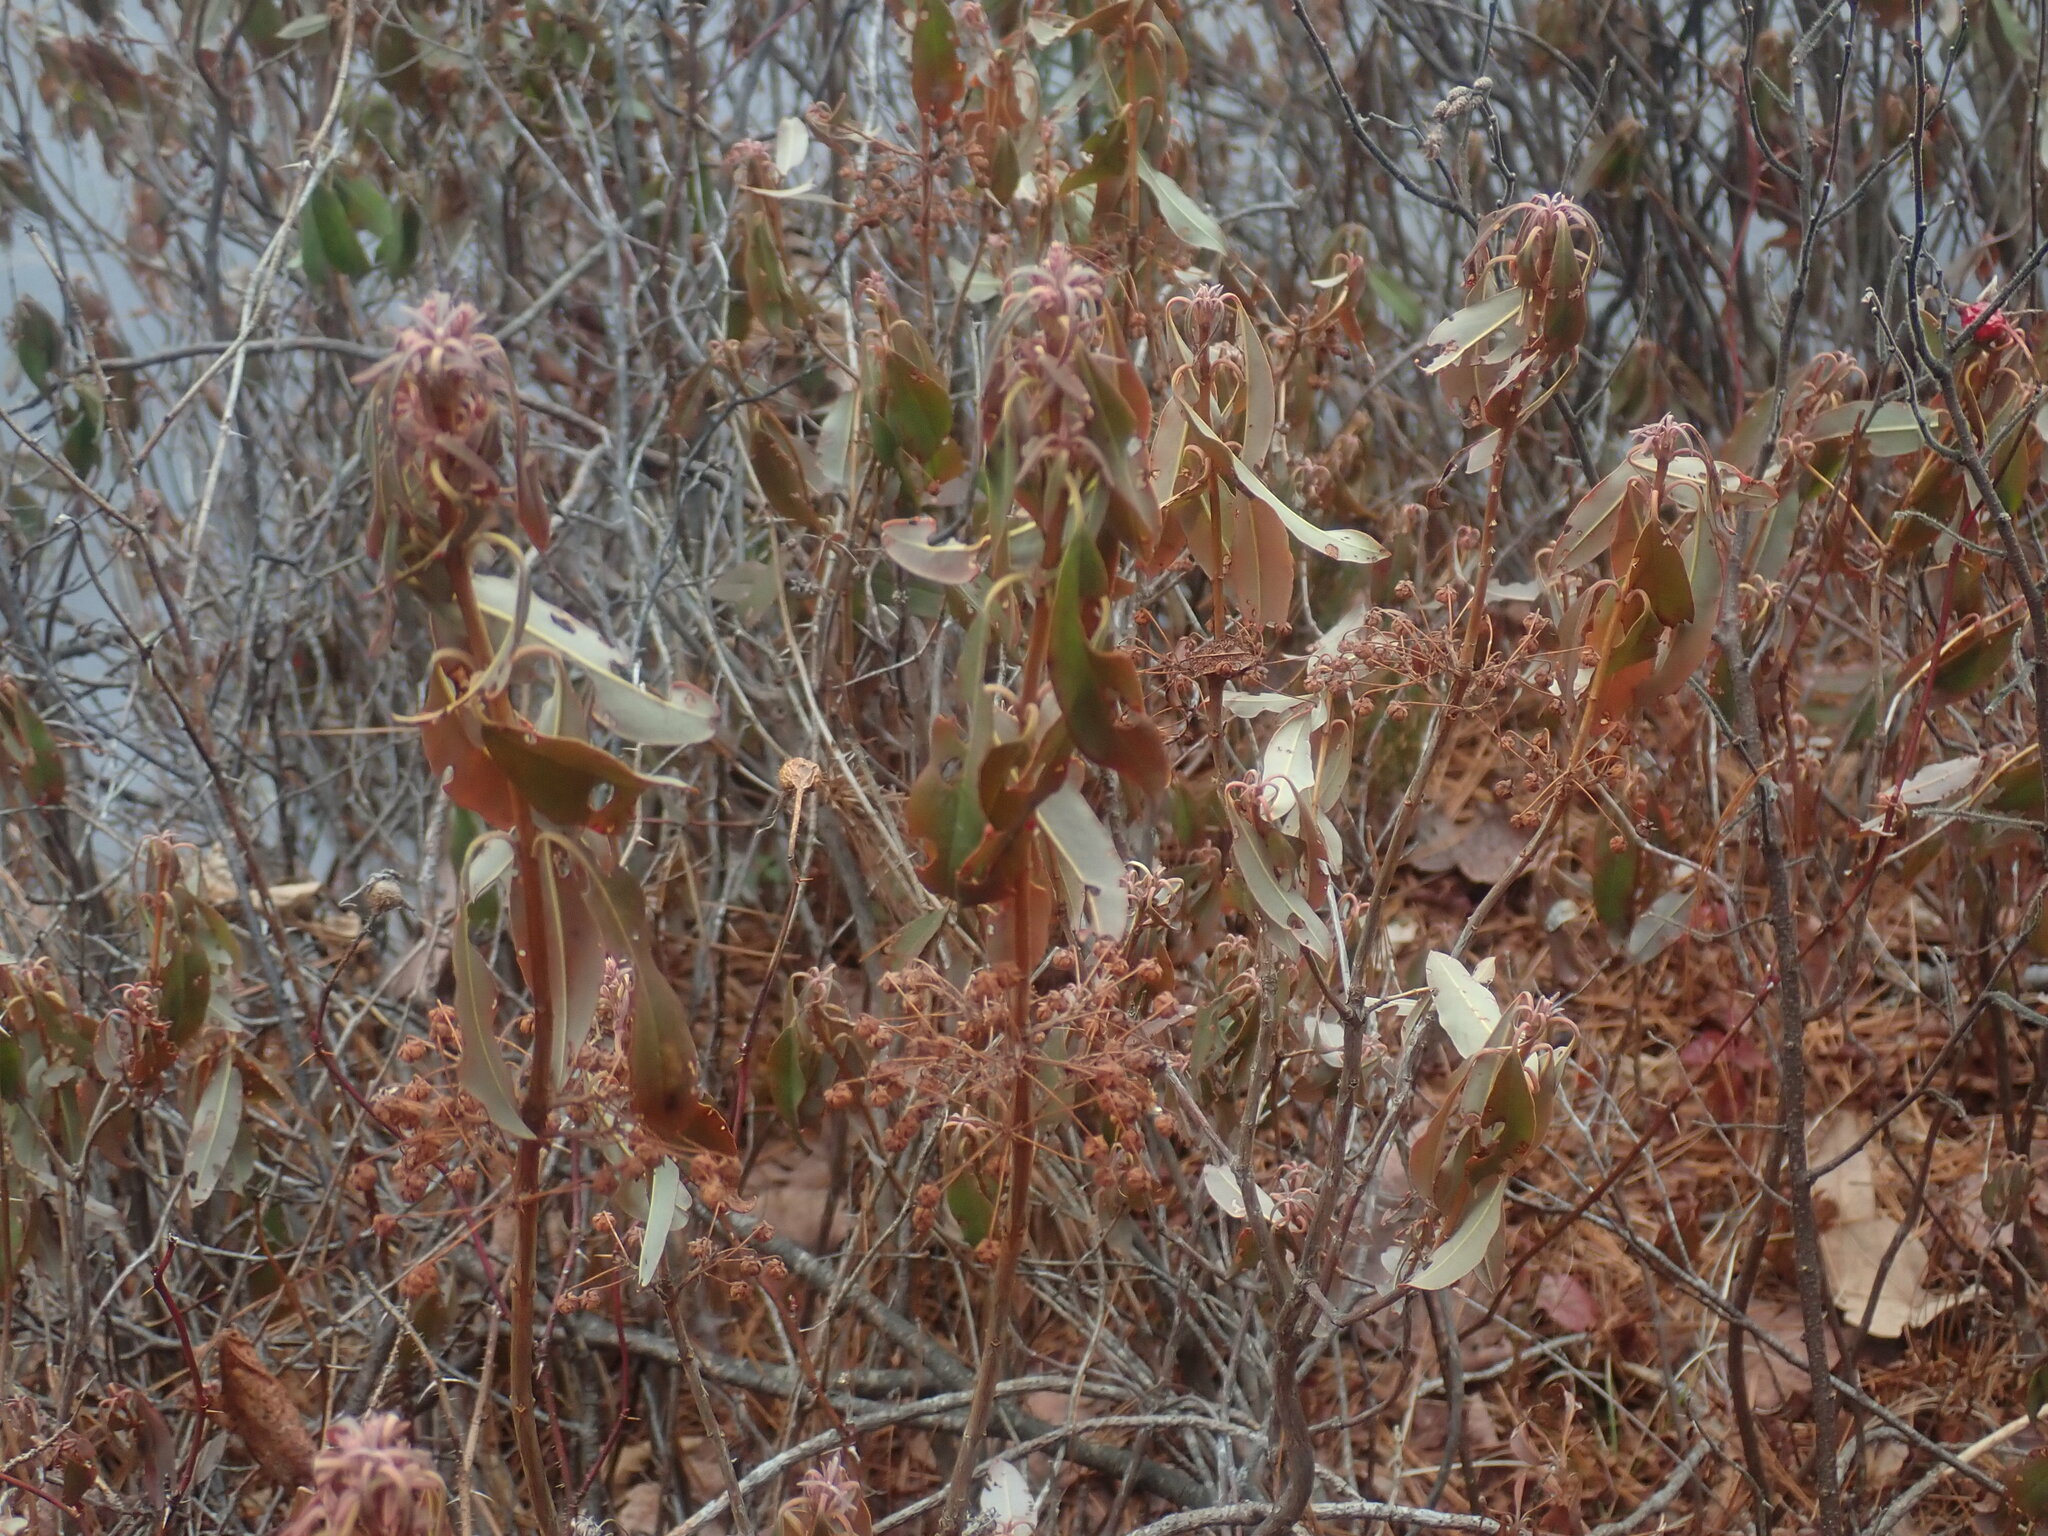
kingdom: Plantae
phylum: Tracheophyta
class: Magnoliopsida
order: Ericales
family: Ericaceae
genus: Kalmia
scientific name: Kalmia angustifolia
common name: Sheep-laurel
